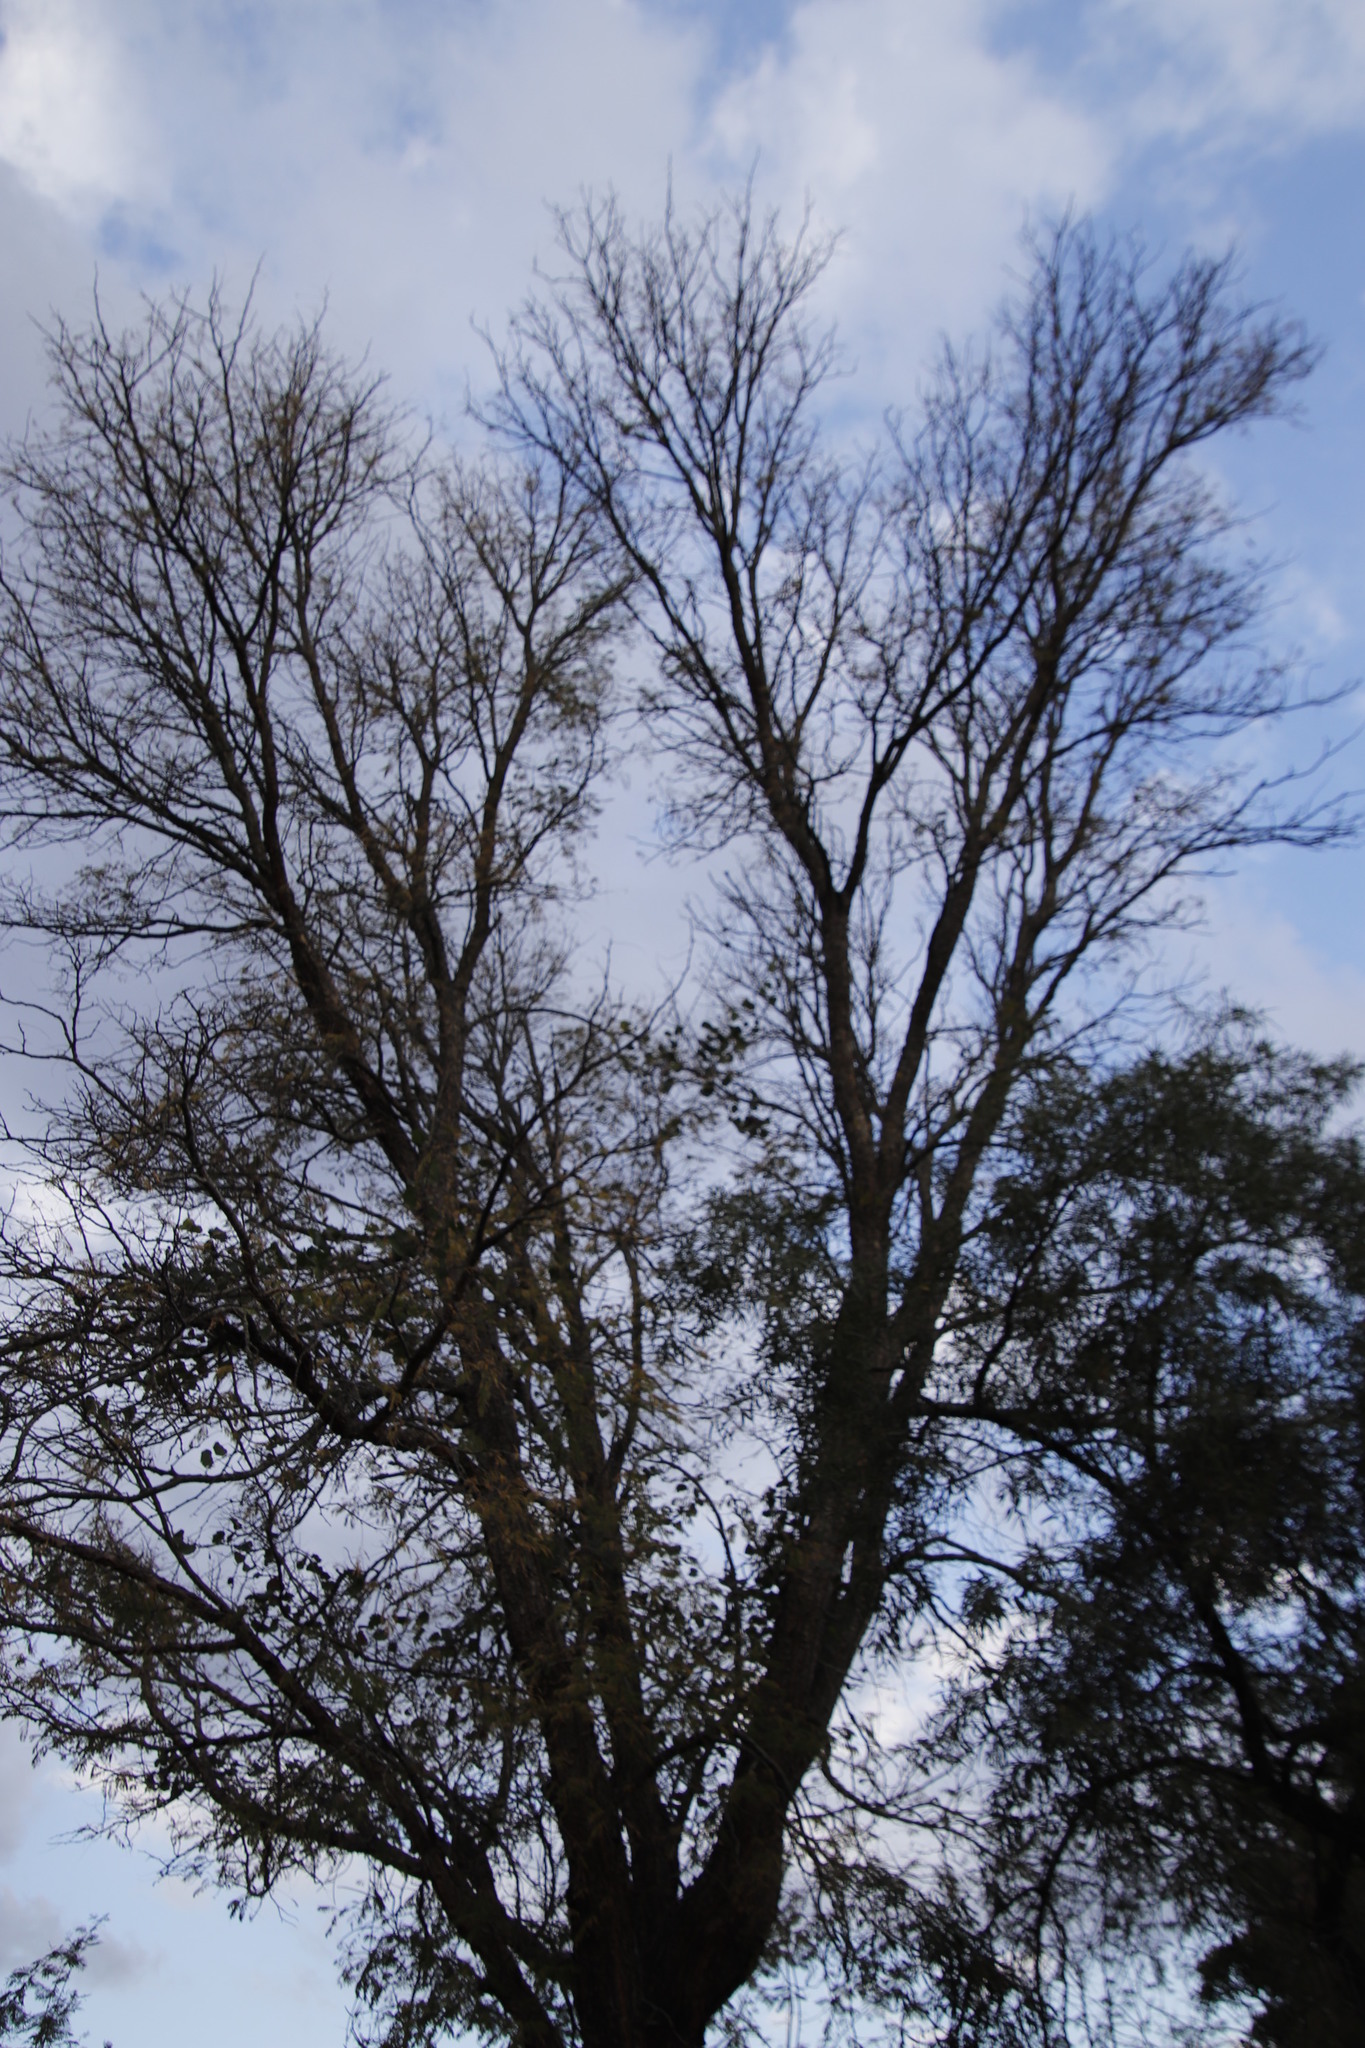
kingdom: Plantae
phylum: Tracheophyta
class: Magnoliopsida
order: Fabales
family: Fabaceae
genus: Senegalia
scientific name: Senegalia galpinii
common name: Monkey-thorn
